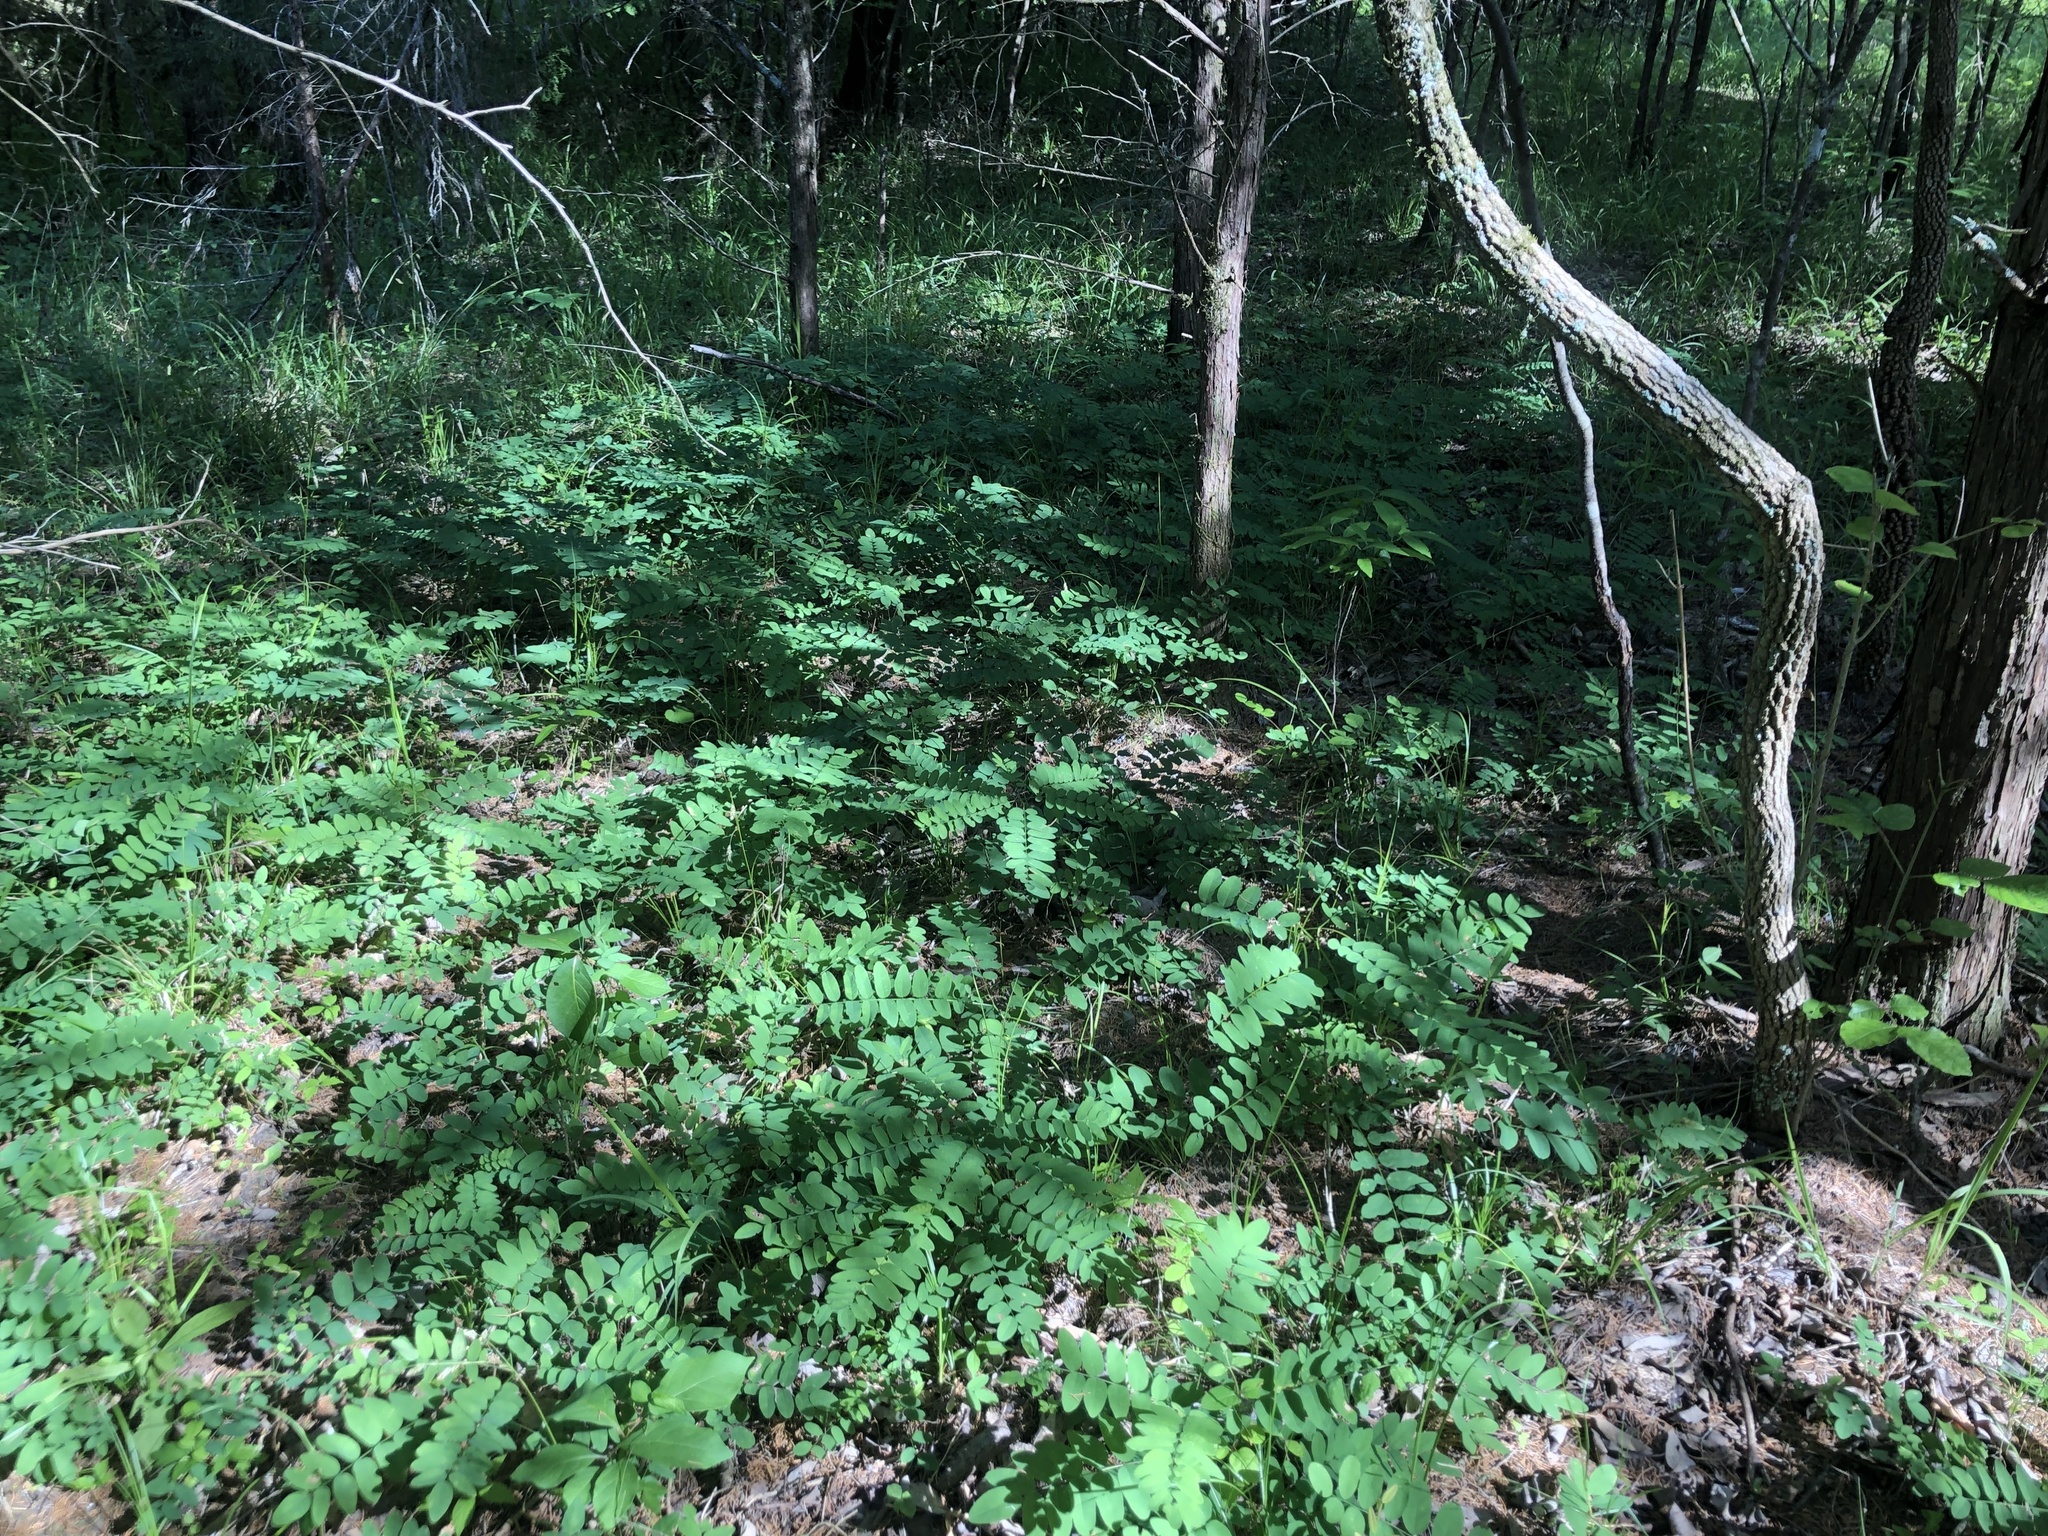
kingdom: Plantae
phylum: Tracheophyta
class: Magnoliopsida
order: Fabales
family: Fabaceae
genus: Amorpha
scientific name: Amorpha fruticosa
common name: False indigo
